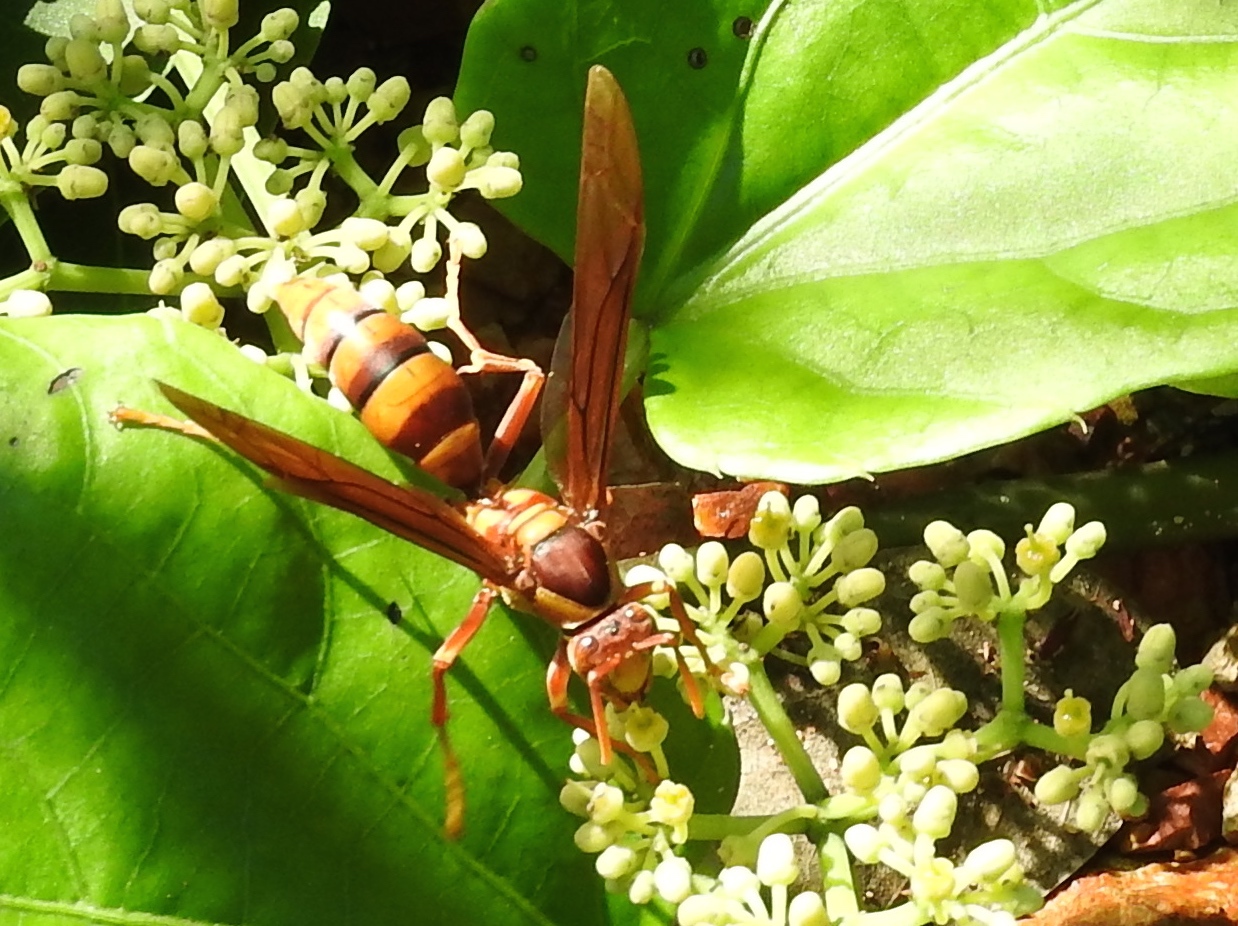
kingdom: Animalia
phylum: Arthropoda
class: Insecta
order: Hymenoptera
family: Eumenidae
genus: Polistes
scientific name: Polistes carnifex
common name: Paper wasp
